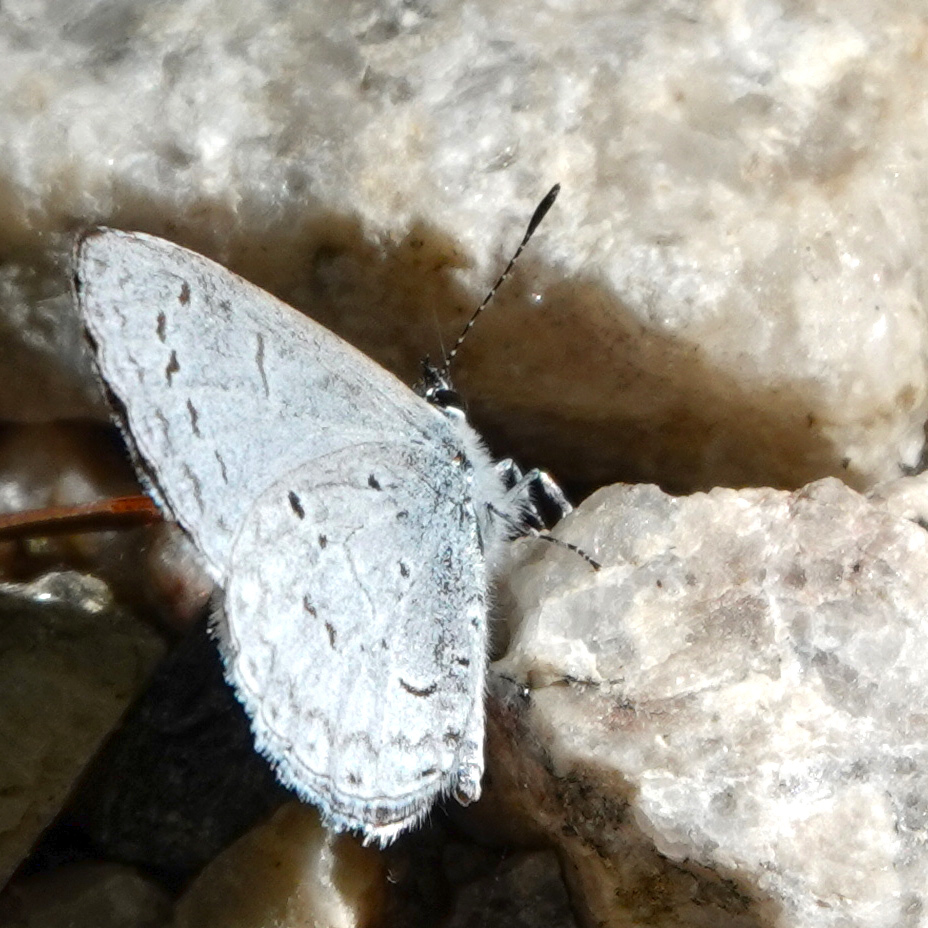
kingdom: Animalia
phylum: Arthropoda
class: Insecta
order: Lepidoptera
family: Lycaenidae
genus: Cyaniris
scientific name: Cyaniris neglecta
